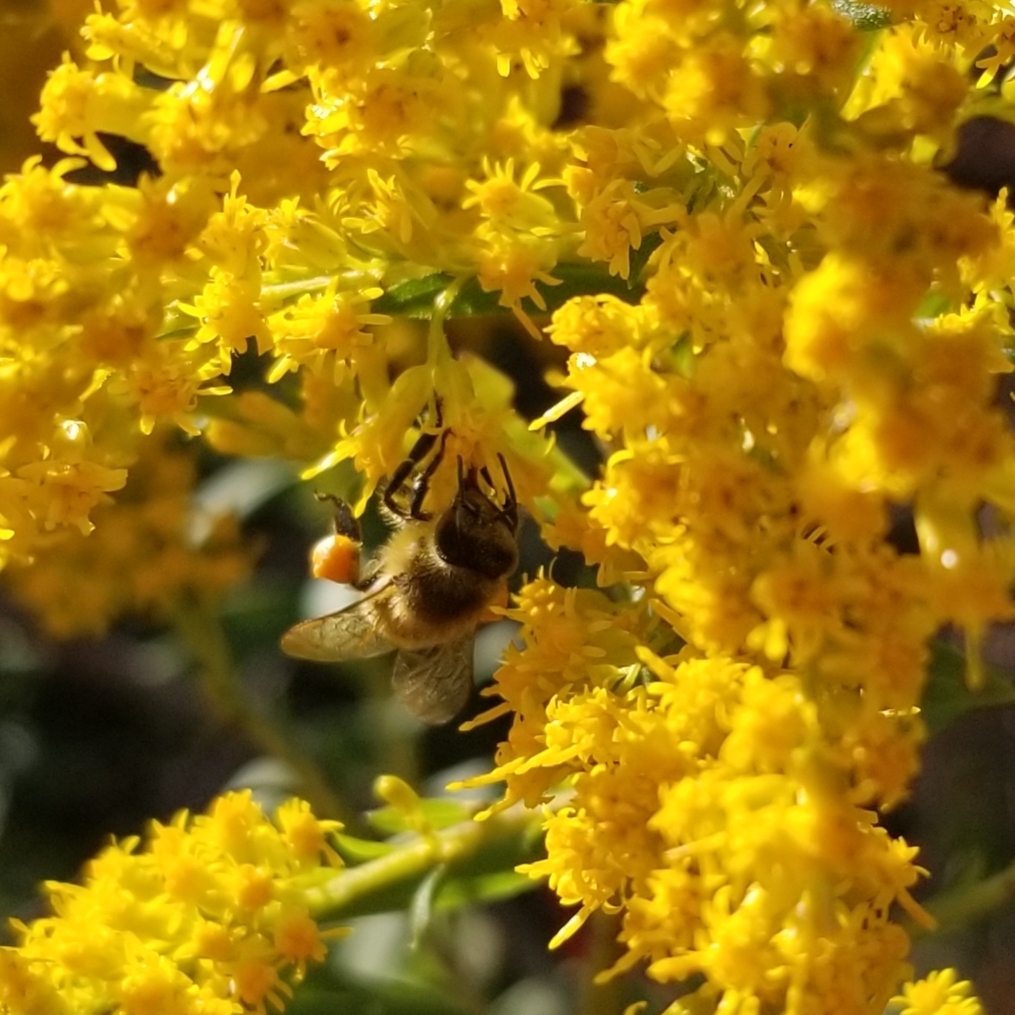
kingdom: Animalia
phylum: Arthropoda
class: Insecta
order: Hymenoptera
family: Apidae
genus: Apis
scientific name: Apis mellifera
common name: Honey bee
